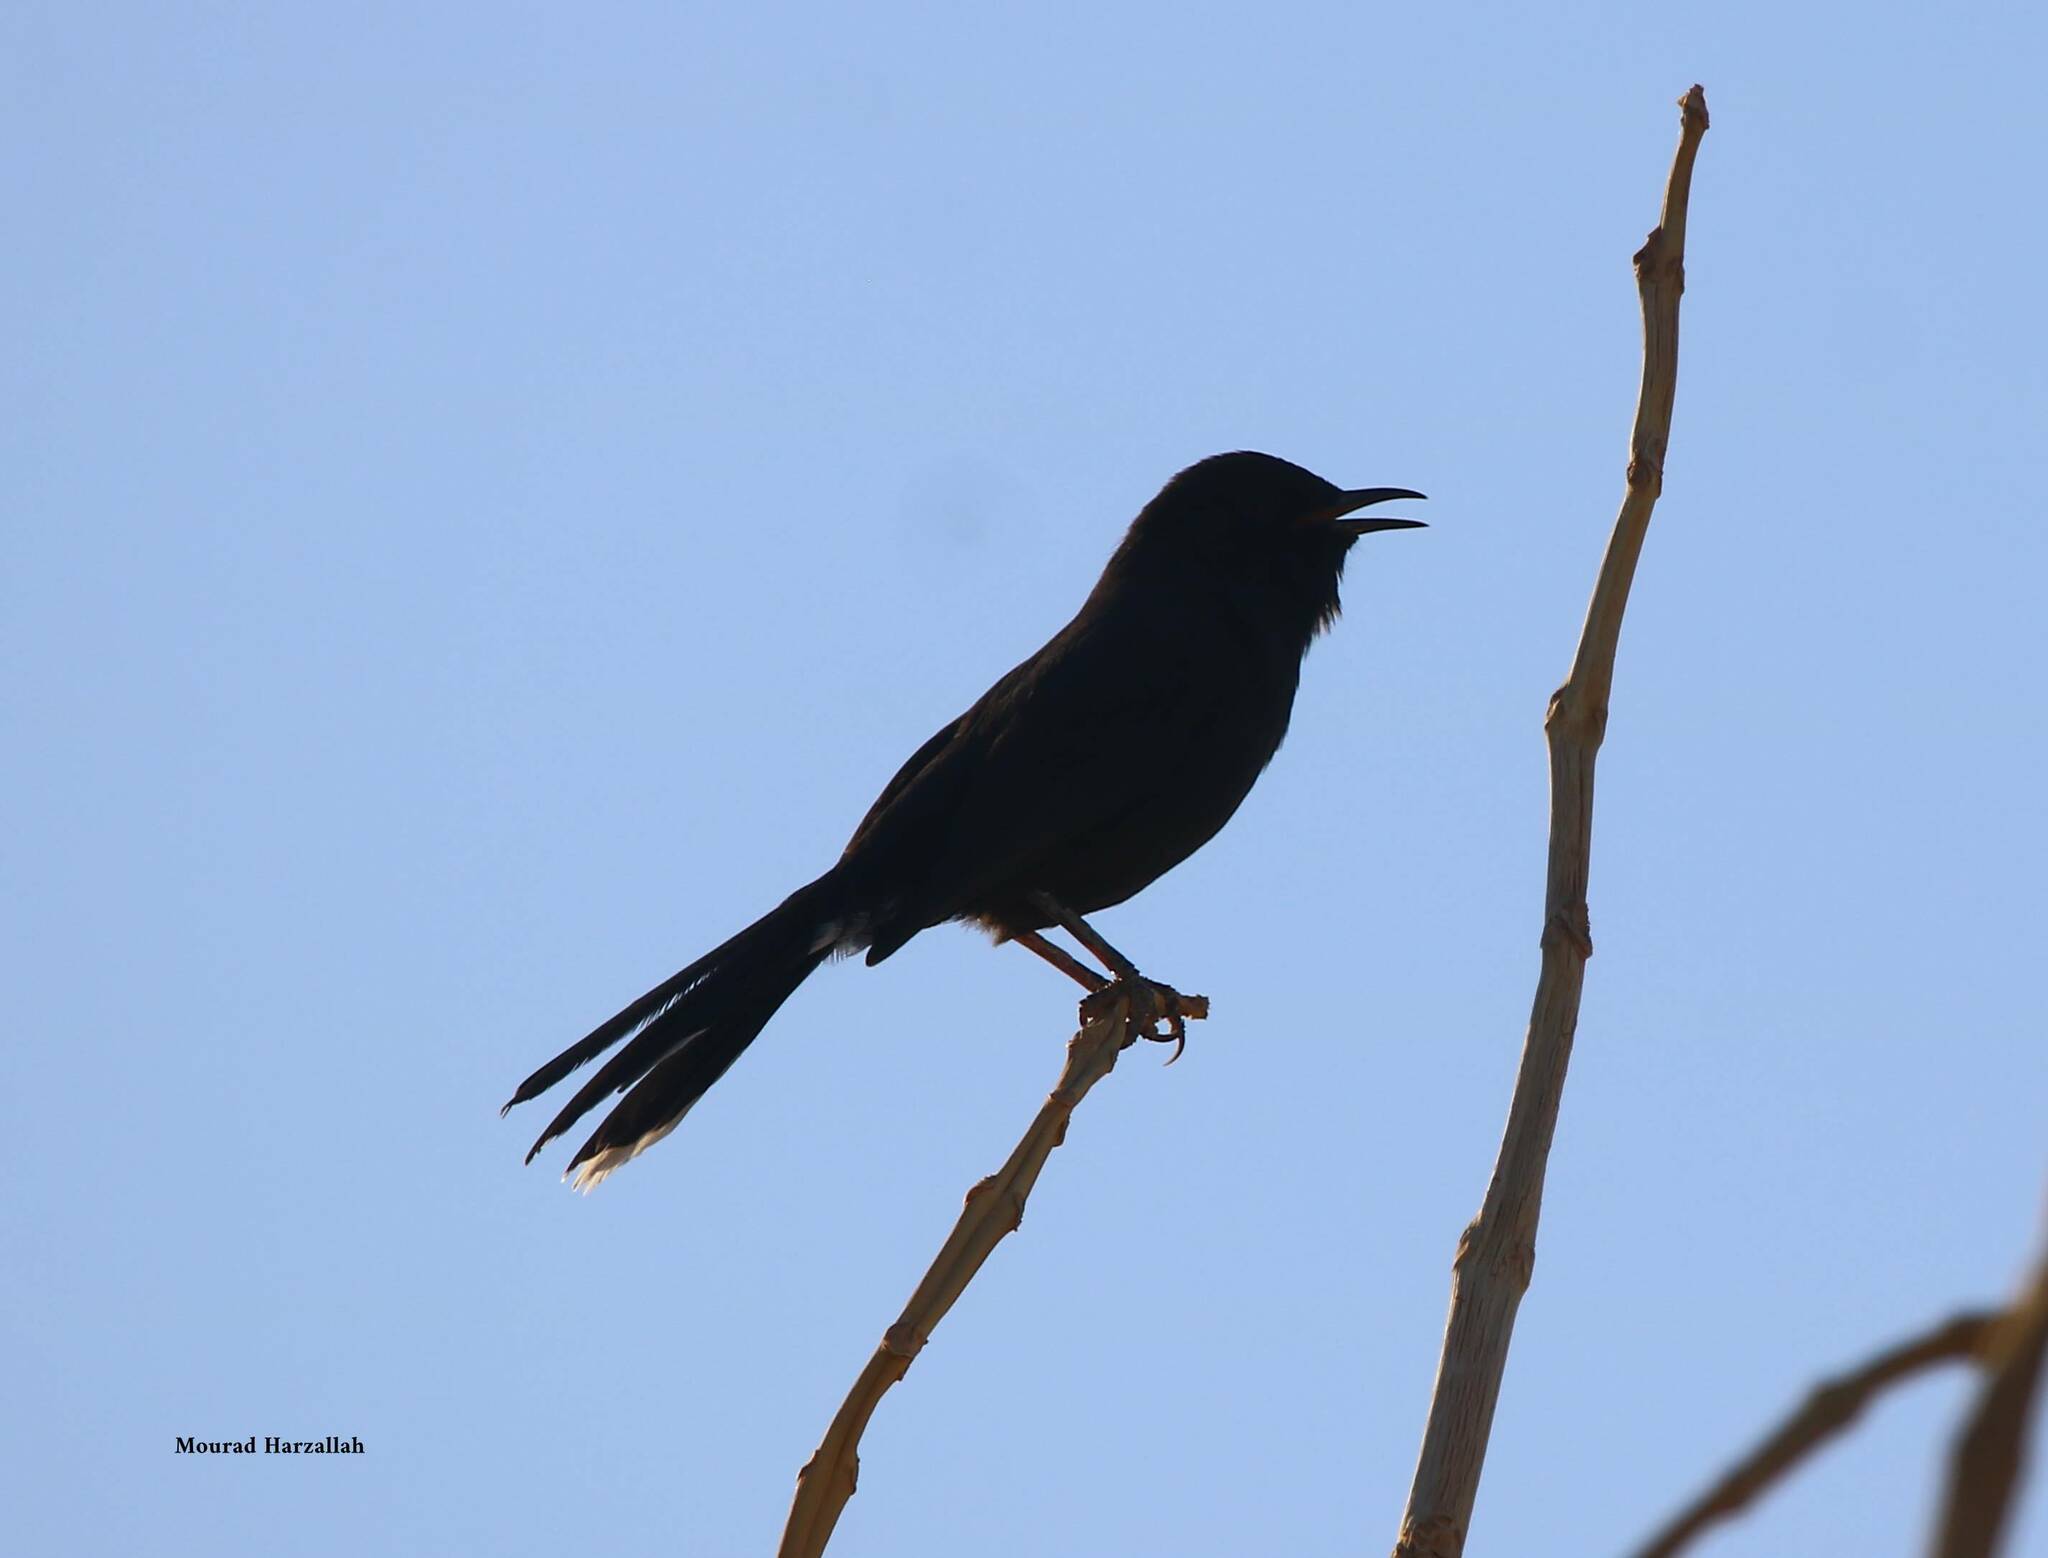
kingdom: Animalia
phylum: Chordata
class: Aves
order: Passeriformes
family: Muscicapidae
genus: Cercotrichas
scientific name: Cercotrichas podobe
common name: Black scrub robin
